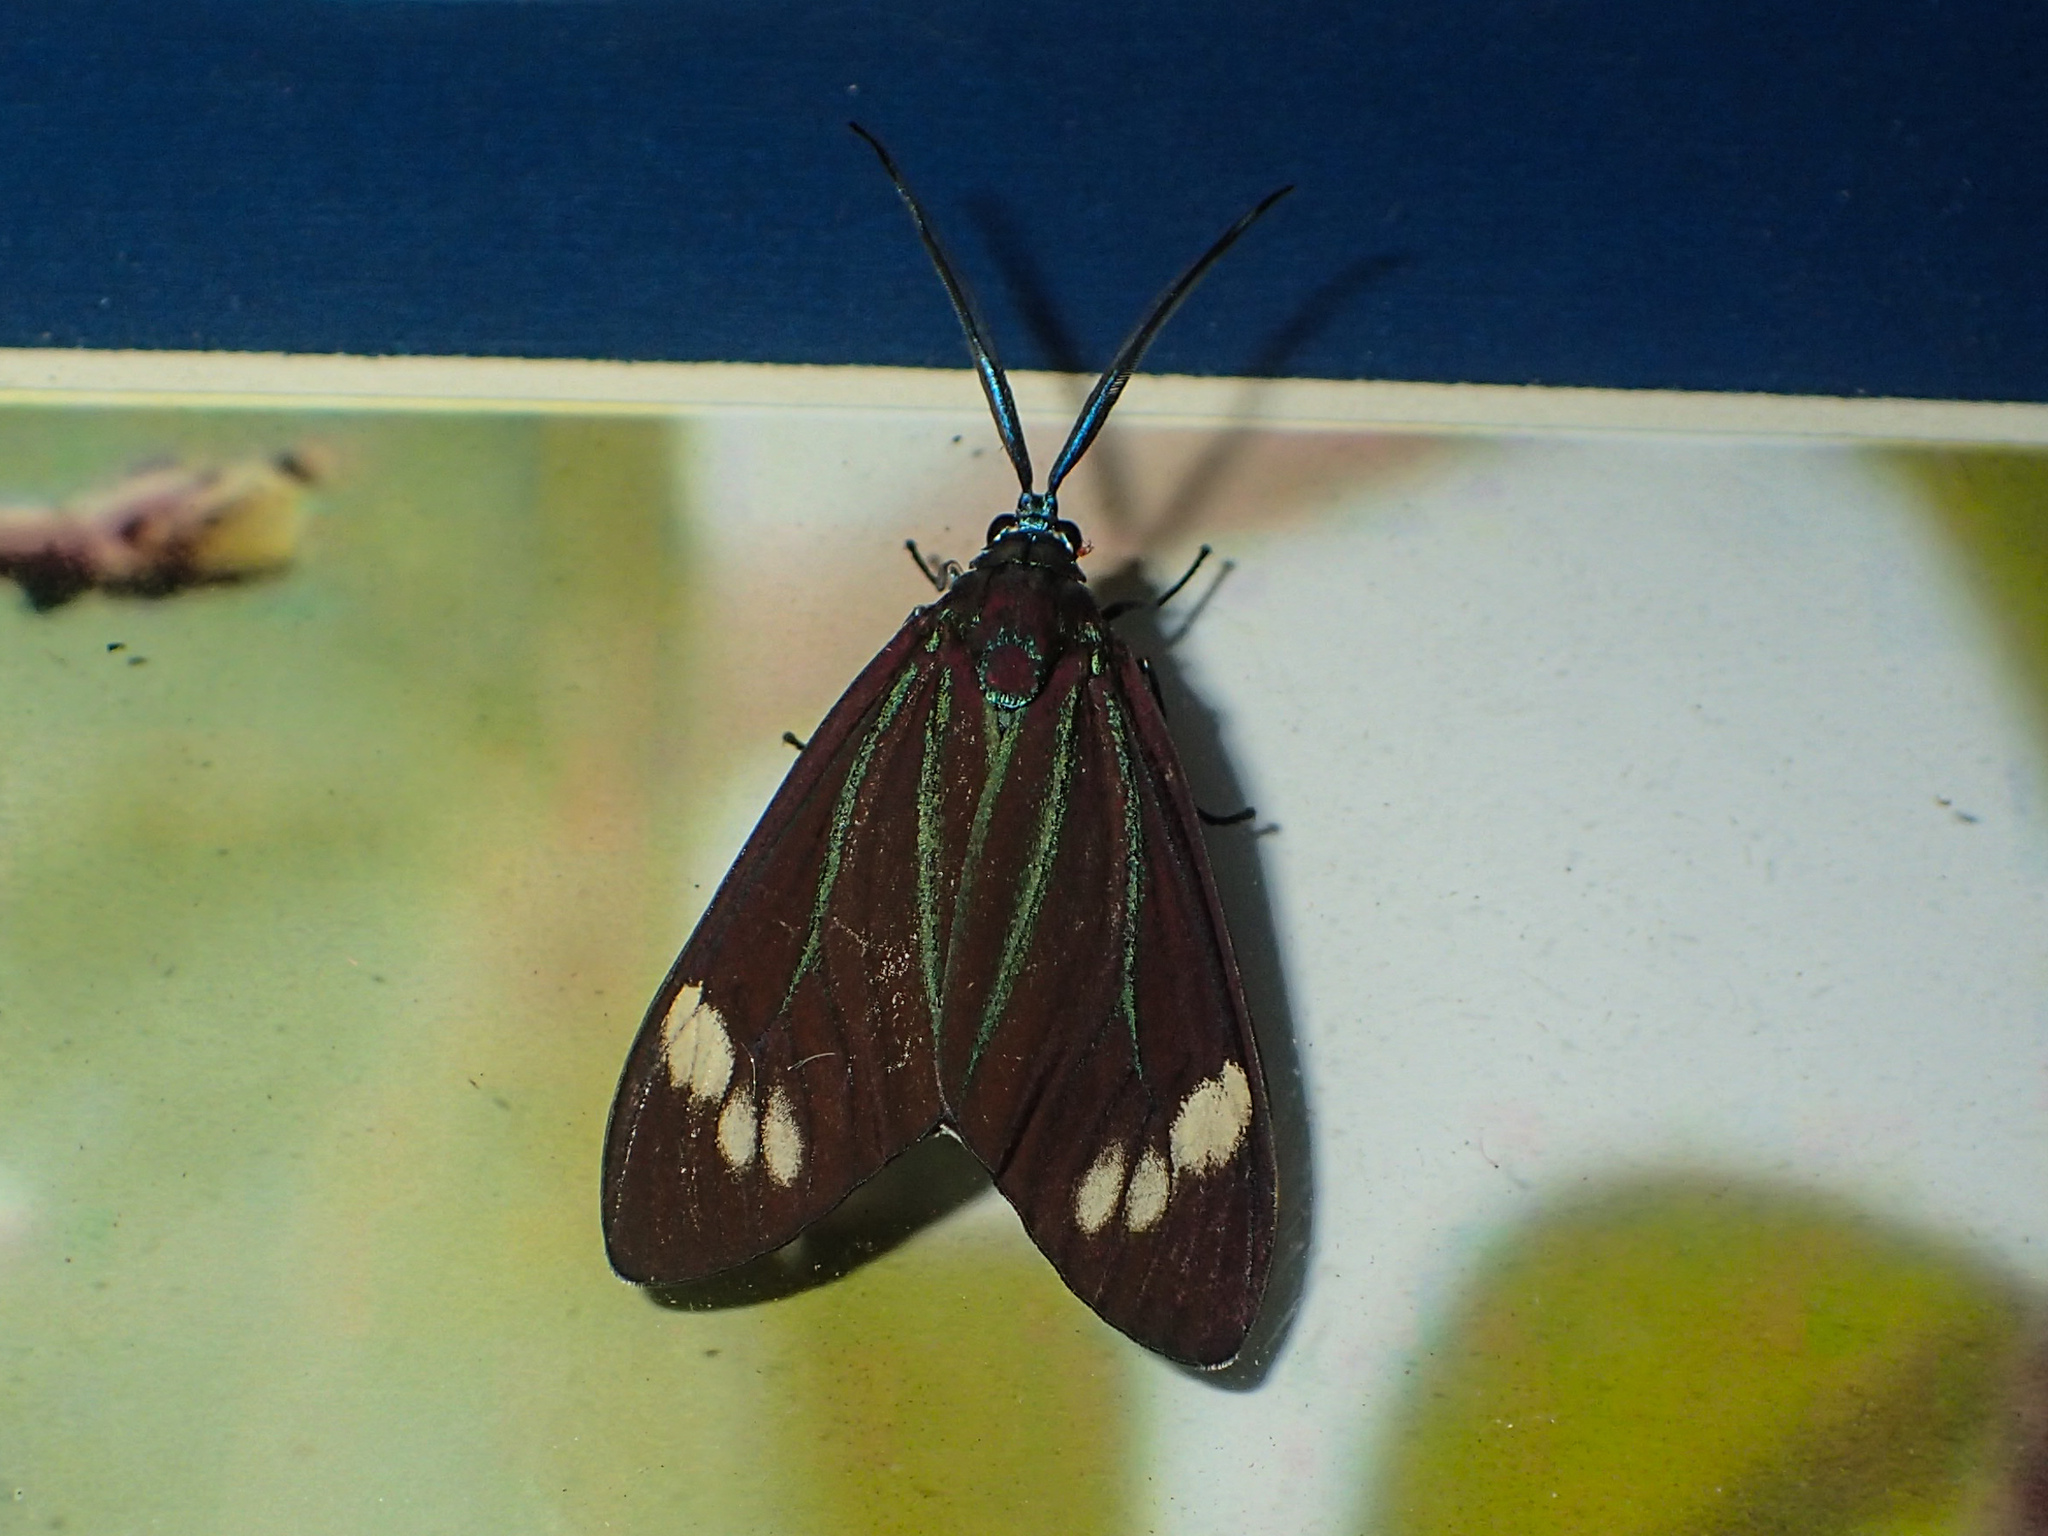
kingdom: Animalia
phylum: Arthropoda
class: Insecta
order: Lepidoptera
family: Zygaenidae
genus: Cyclosia
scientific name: Cyclosia papilionaris
